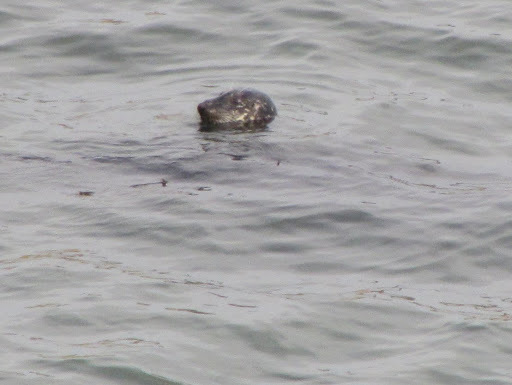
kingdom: Animalia
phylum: Chordata
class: Mammalia
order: Carnivora
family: Phocidae
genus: Phoca
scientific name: Phoca vitulina
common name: Harbor seal
